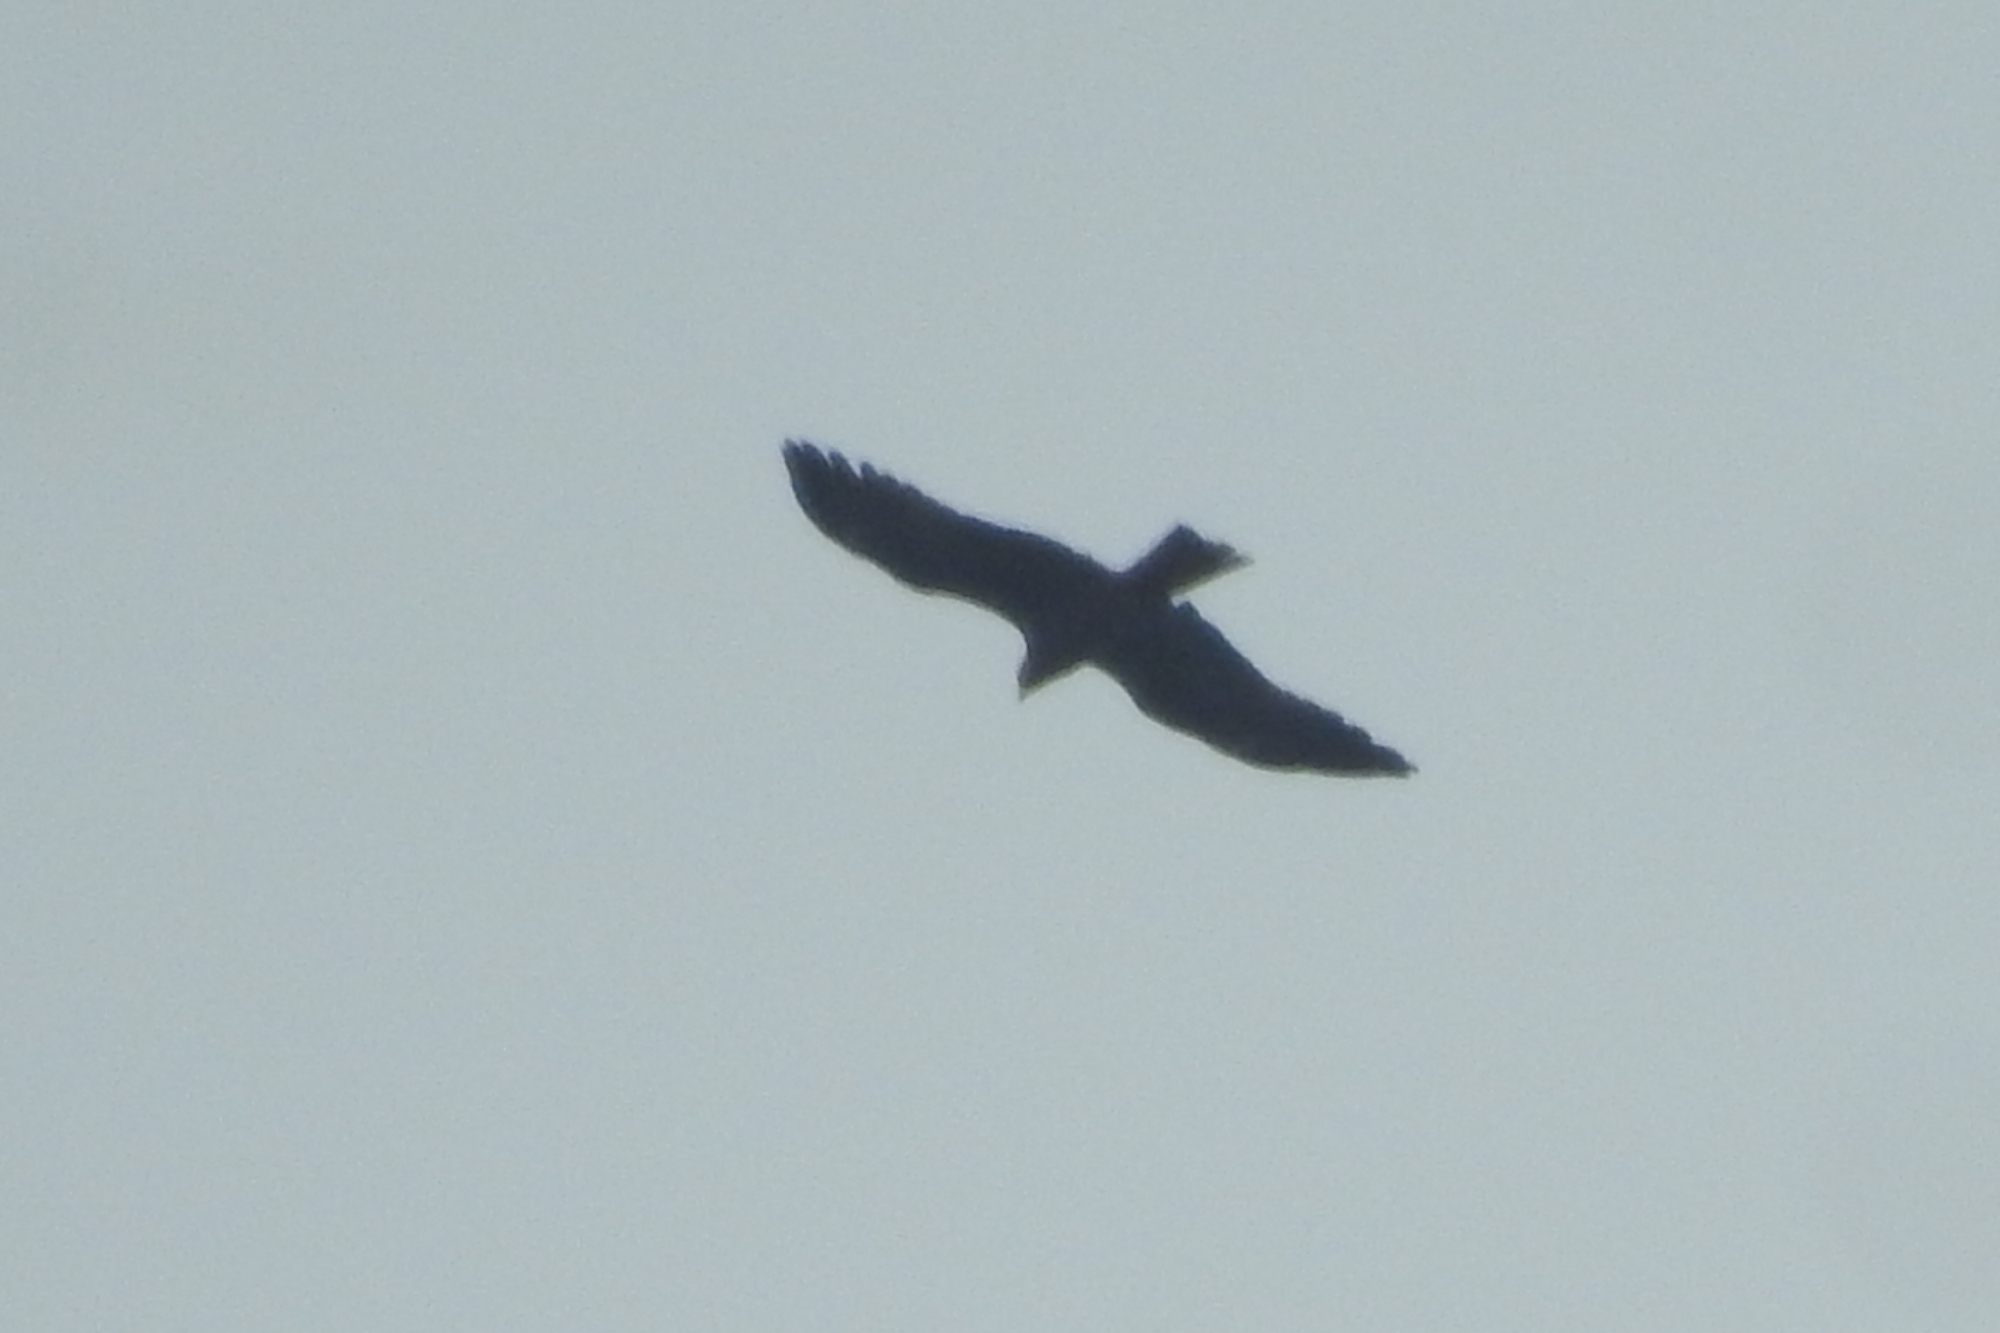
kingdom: Animalia
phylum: Chordata
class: Aves
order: Accipitriformes
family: Accipitridae
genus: Milvus
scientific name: Milvus migrans
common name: Black kite
